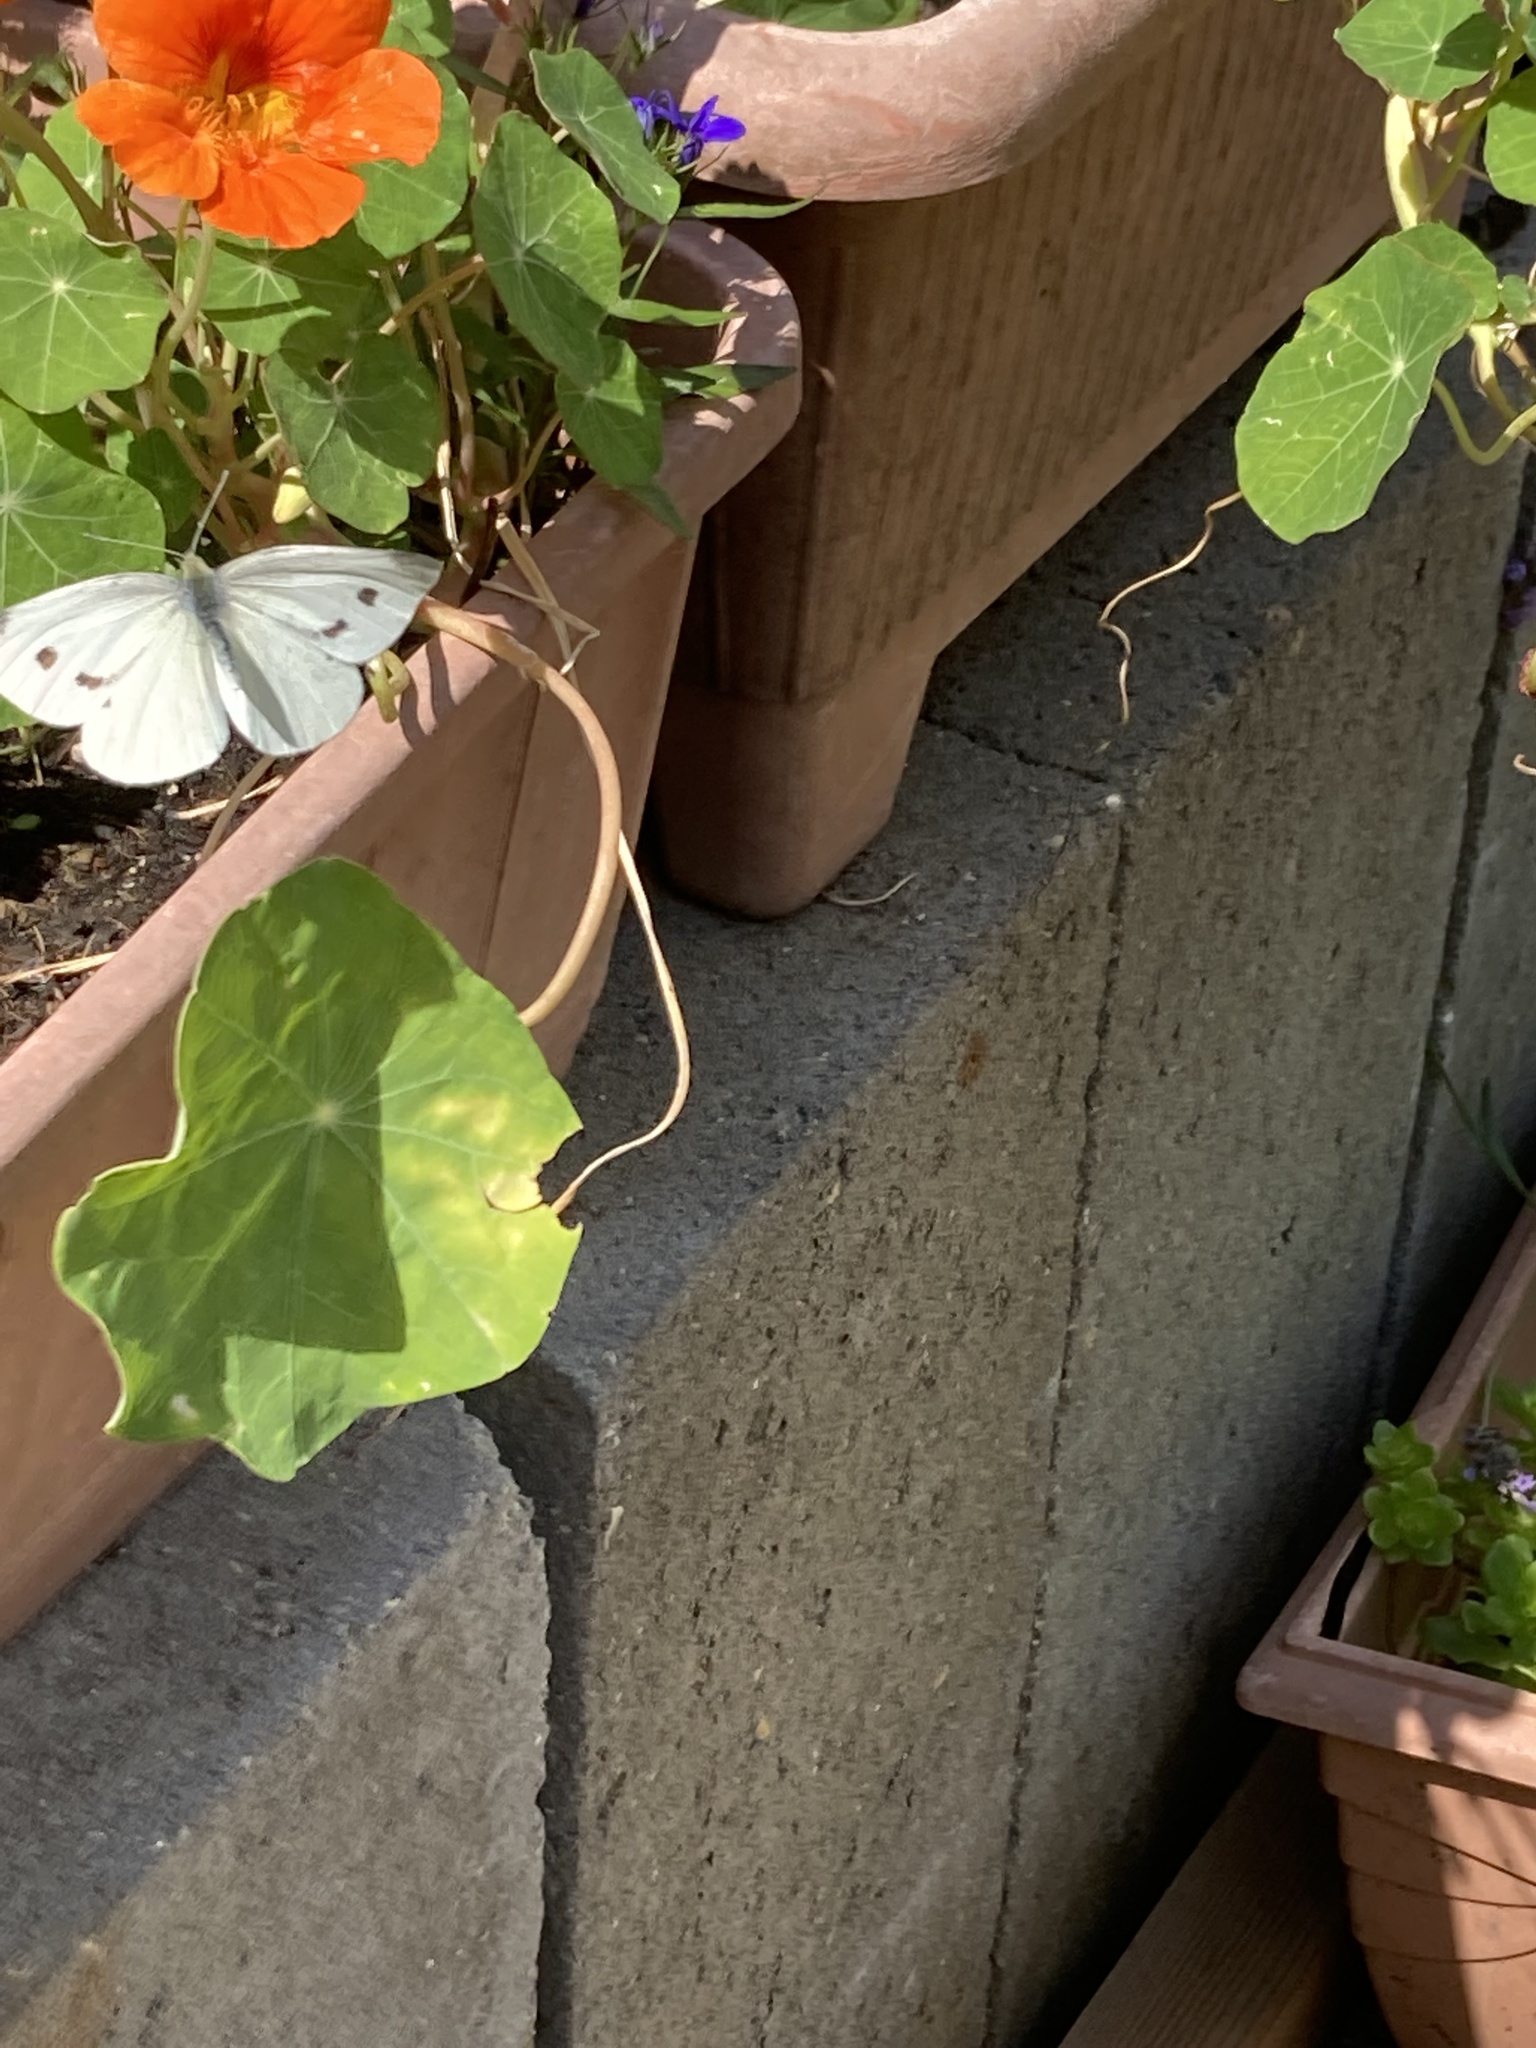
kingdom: Animalia
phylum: Arthropoda
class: Insecta
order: Lepidoptera
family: Pieridae
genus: Pieris
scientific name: Pieris rapae
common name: Small white
